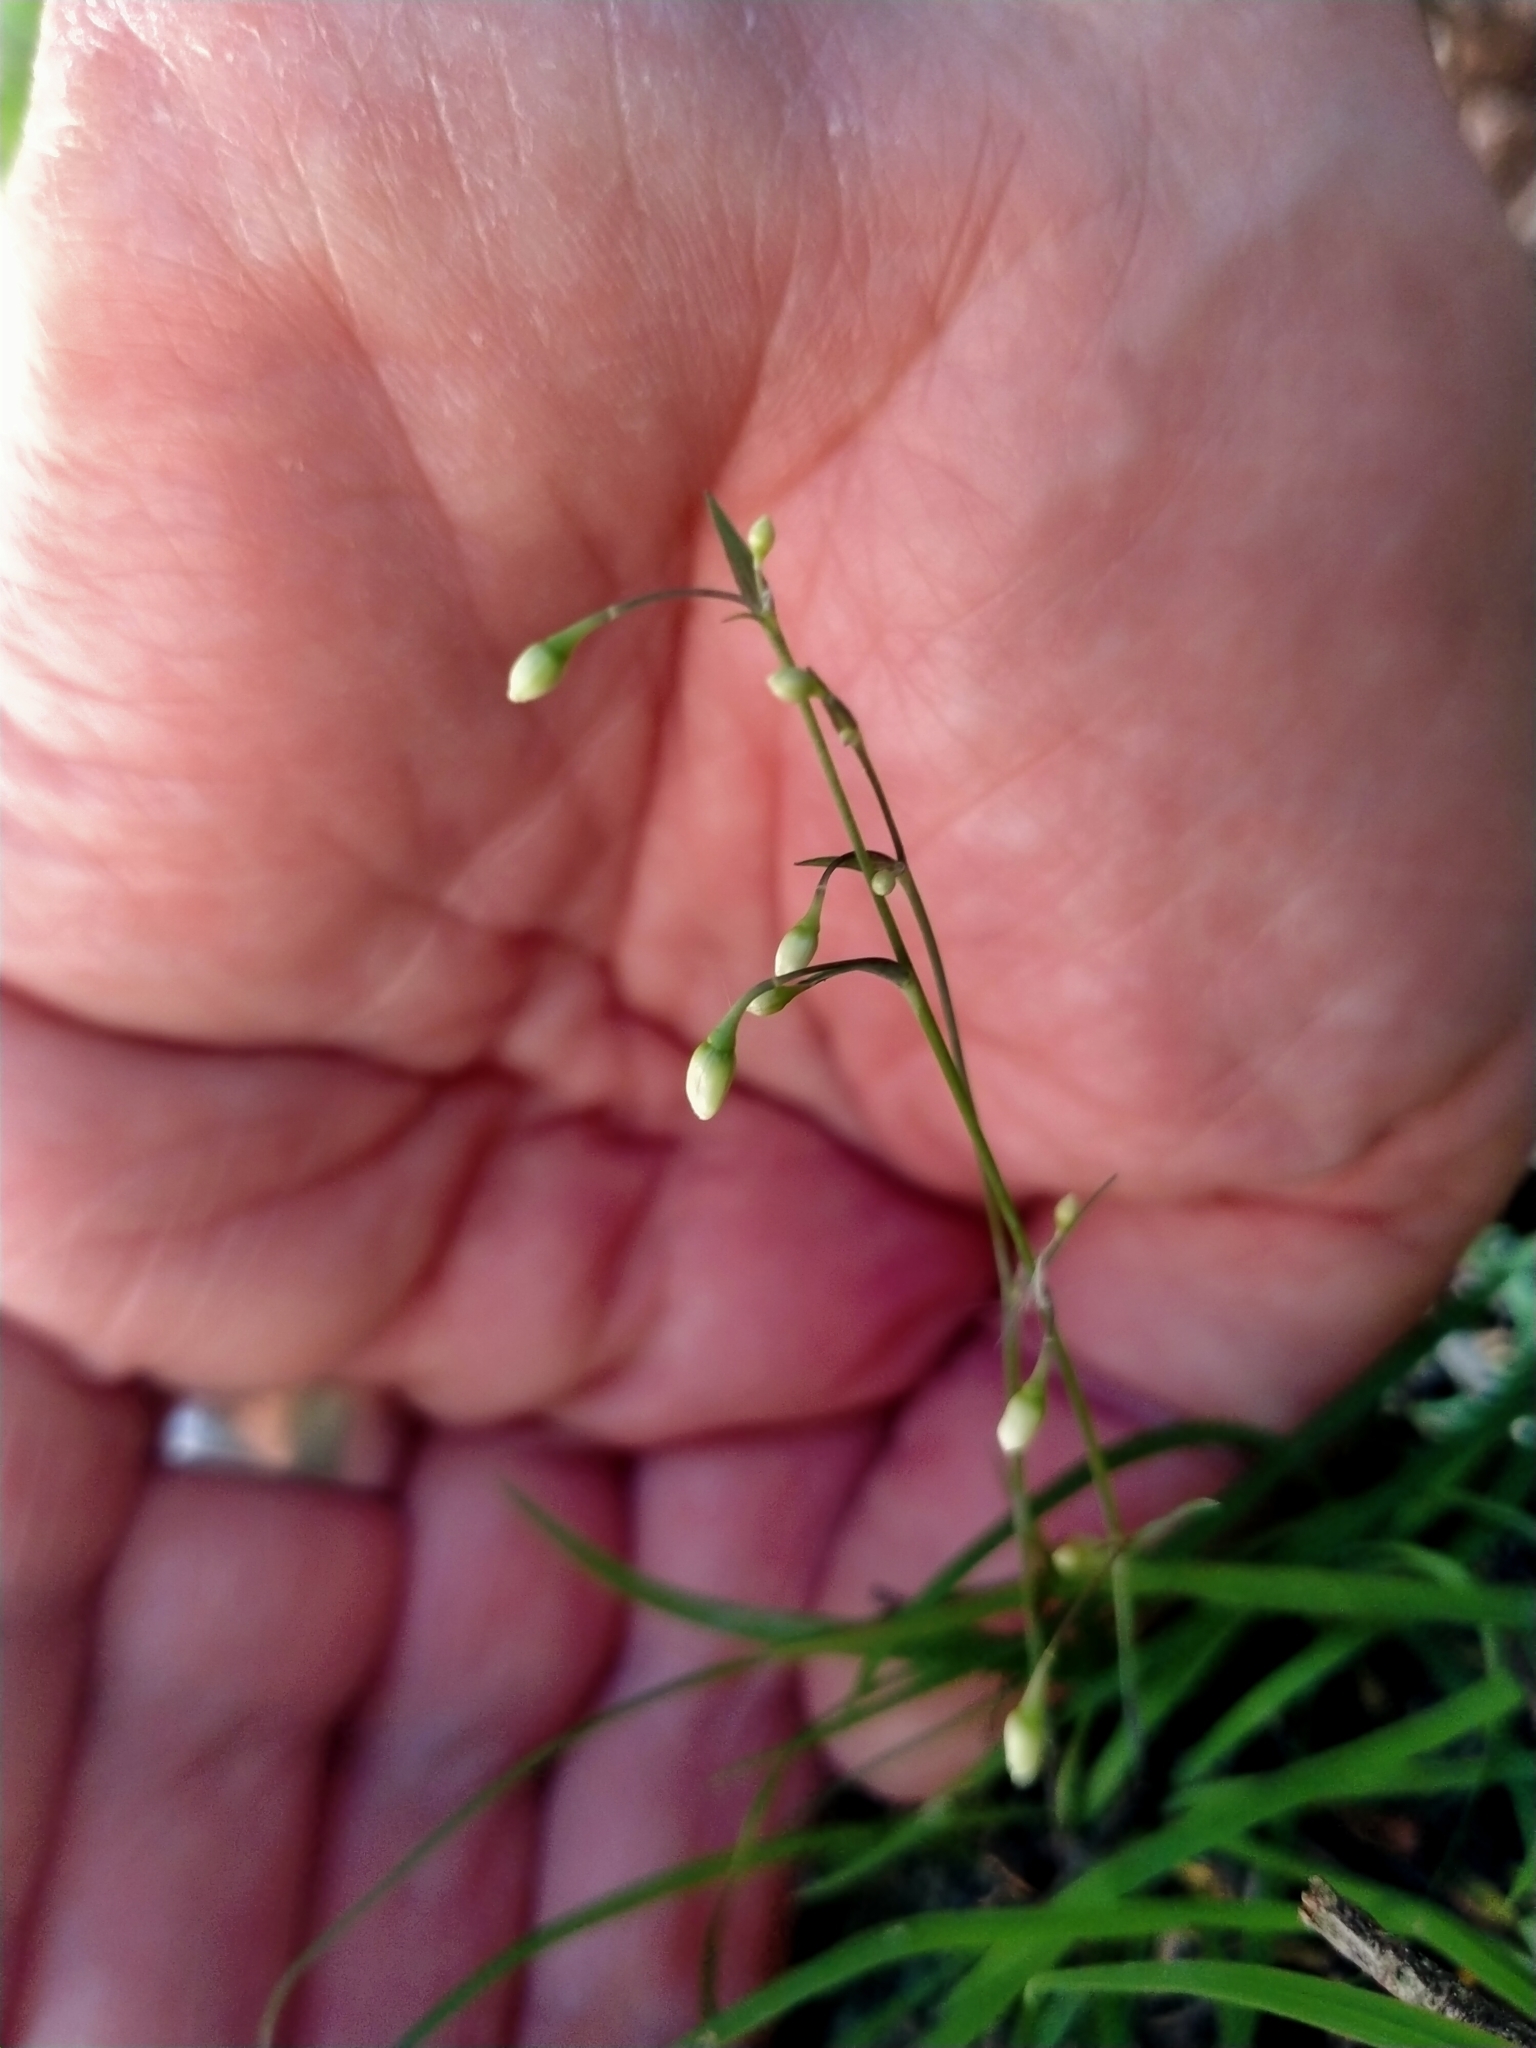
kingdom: Plantae
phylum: Tracheophyta
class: Liliopsida
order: Asparagales
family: Asparagaceae
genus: Arthropodium
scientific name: Arthropodium candidum
